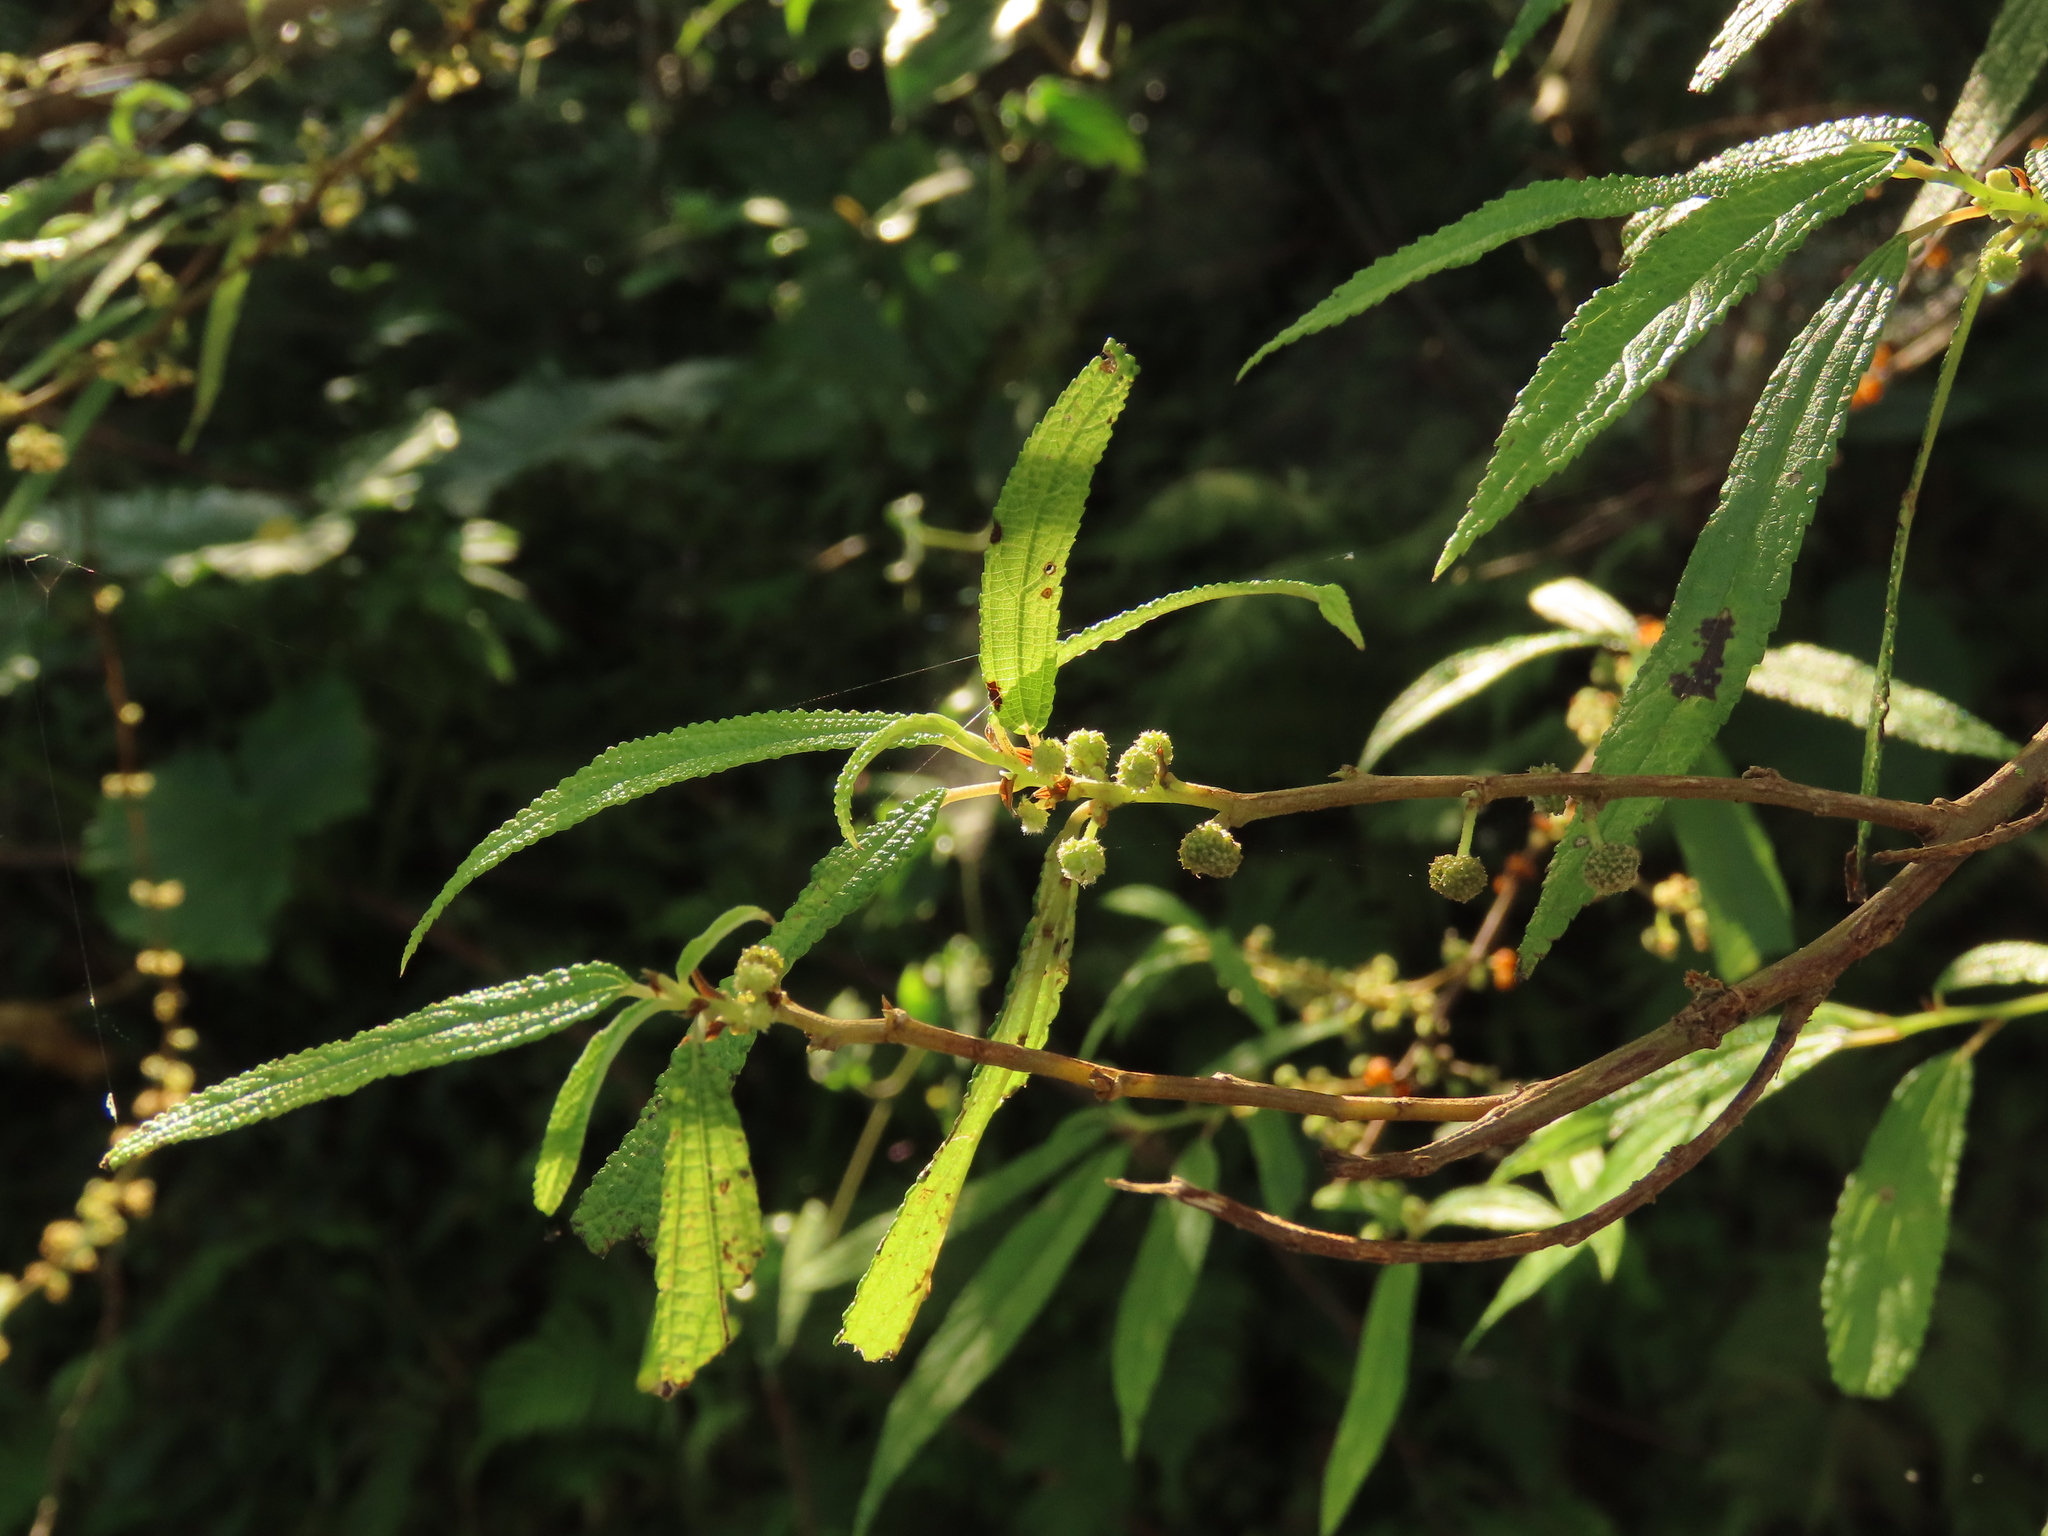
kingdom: Plantae
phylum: Tracheophyta
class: Magnoliopsida
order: Rosales
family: Urticaceae
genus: Debregeasia
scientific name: Debregeasia orientalis
